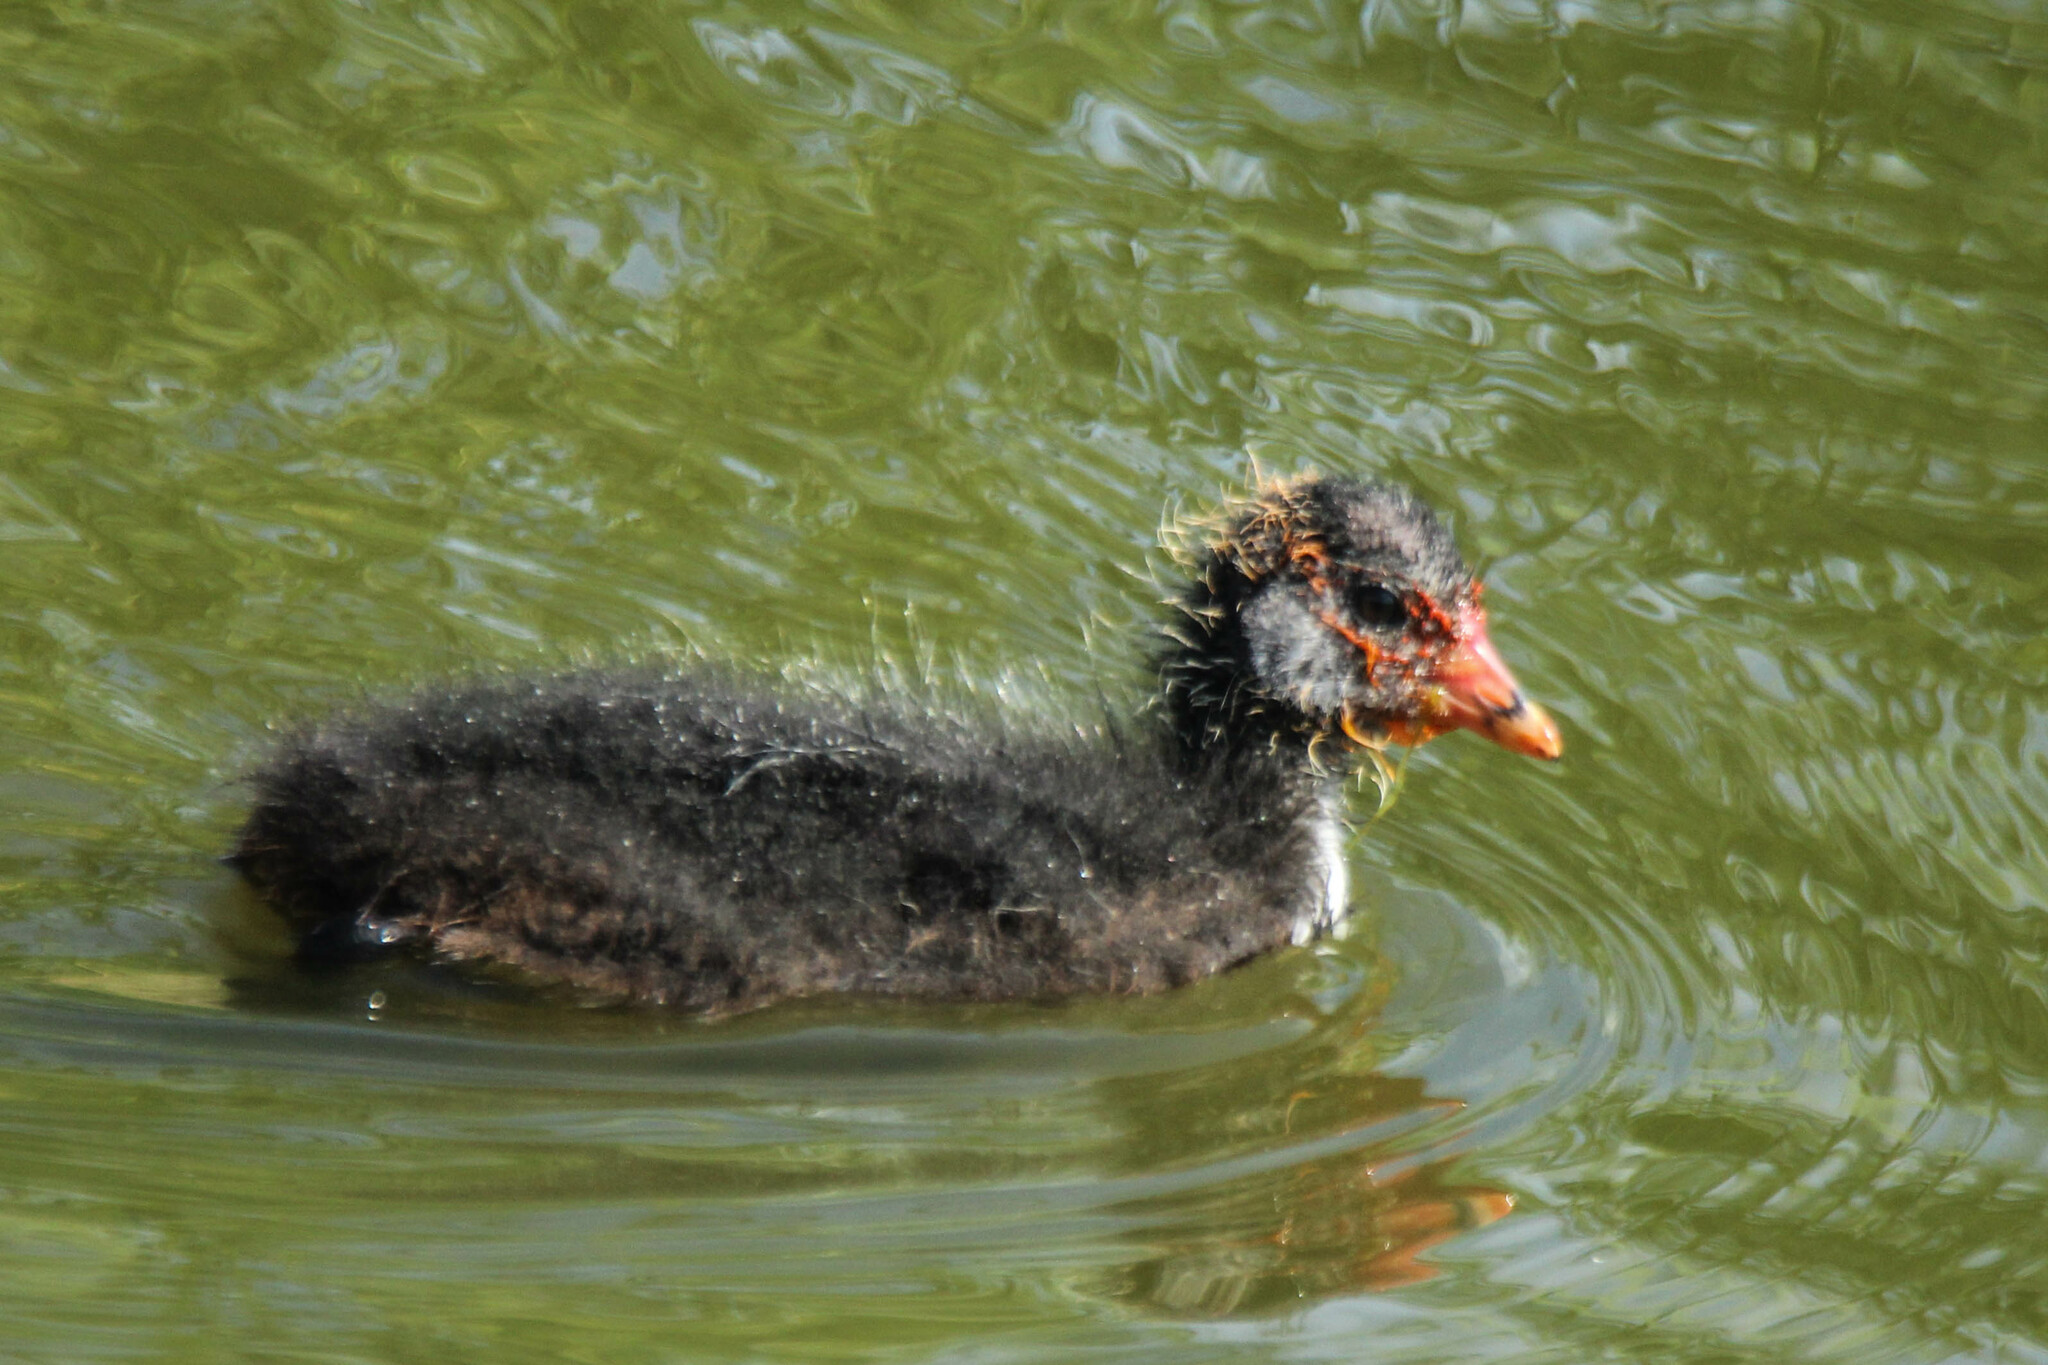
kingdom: Animalia
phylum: Chordata
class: Aves
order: Gruiformes
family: Rallidae
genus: Fulica
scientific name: Fulica atra
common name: Eurasian coot
